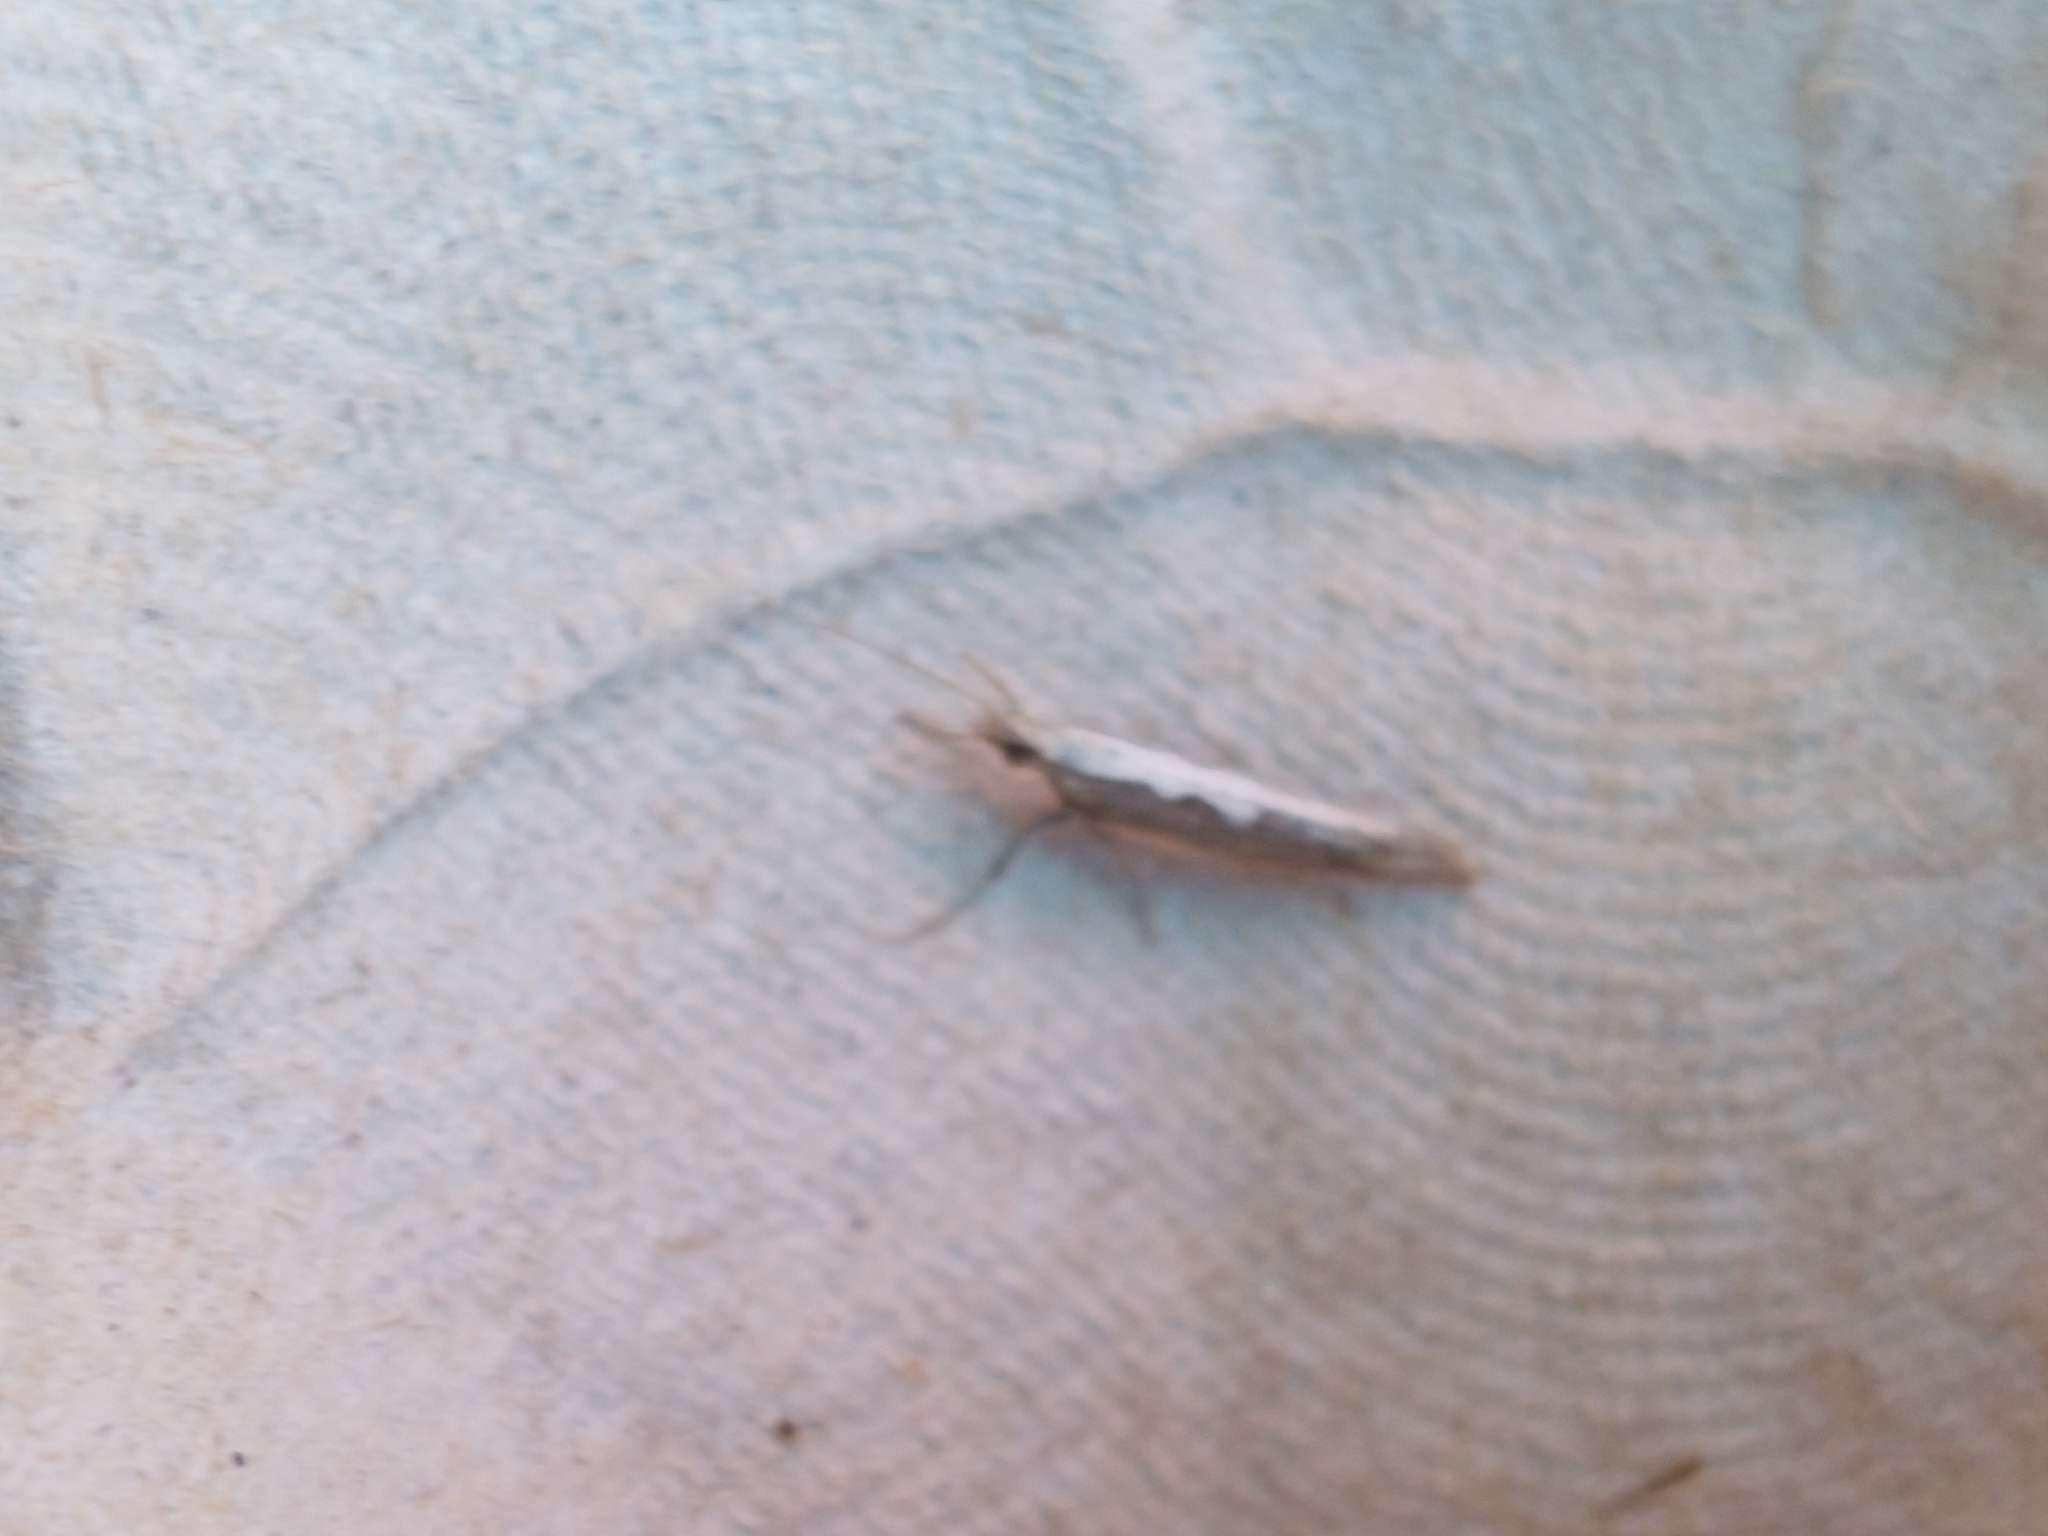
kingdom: Animalia
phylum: Arthropoda
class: Insecta
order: Lepidoptera
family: Plutellidae
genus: Plutella
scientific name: Plutella xylostella
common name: Diamond-back moth
